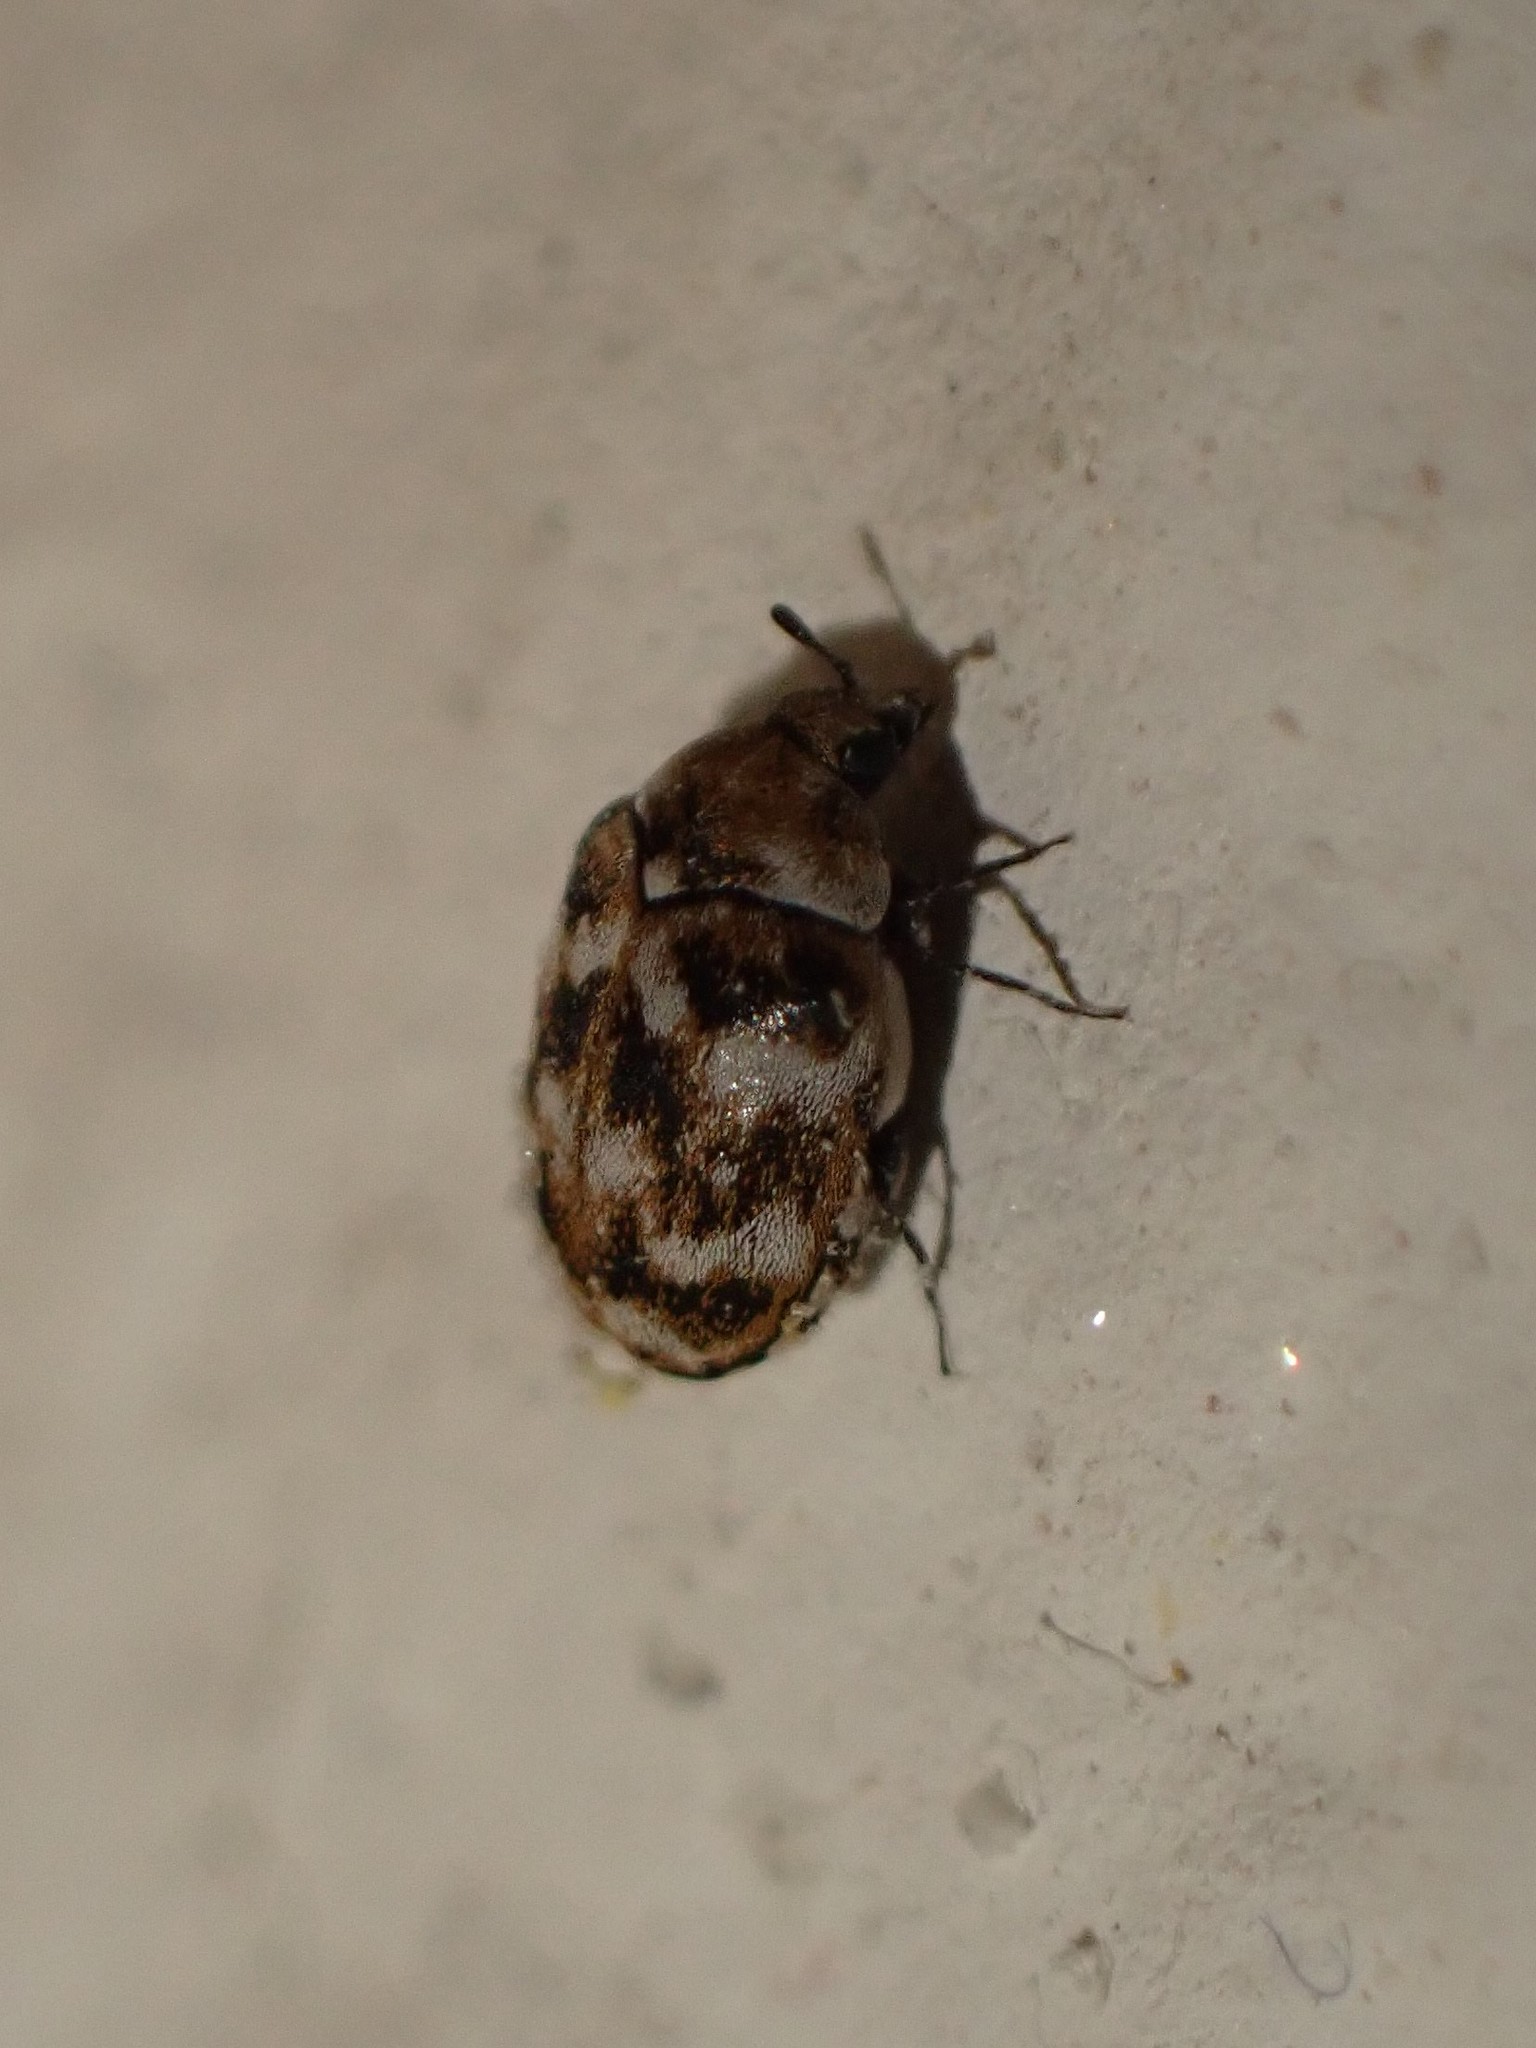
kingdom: Animalia
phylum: Arthropoda
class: Insecta
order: Coleoptera
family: Dermestidae
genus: Anthrenus
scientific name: Anthrenus verbasci
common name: Varied carpet beetle
